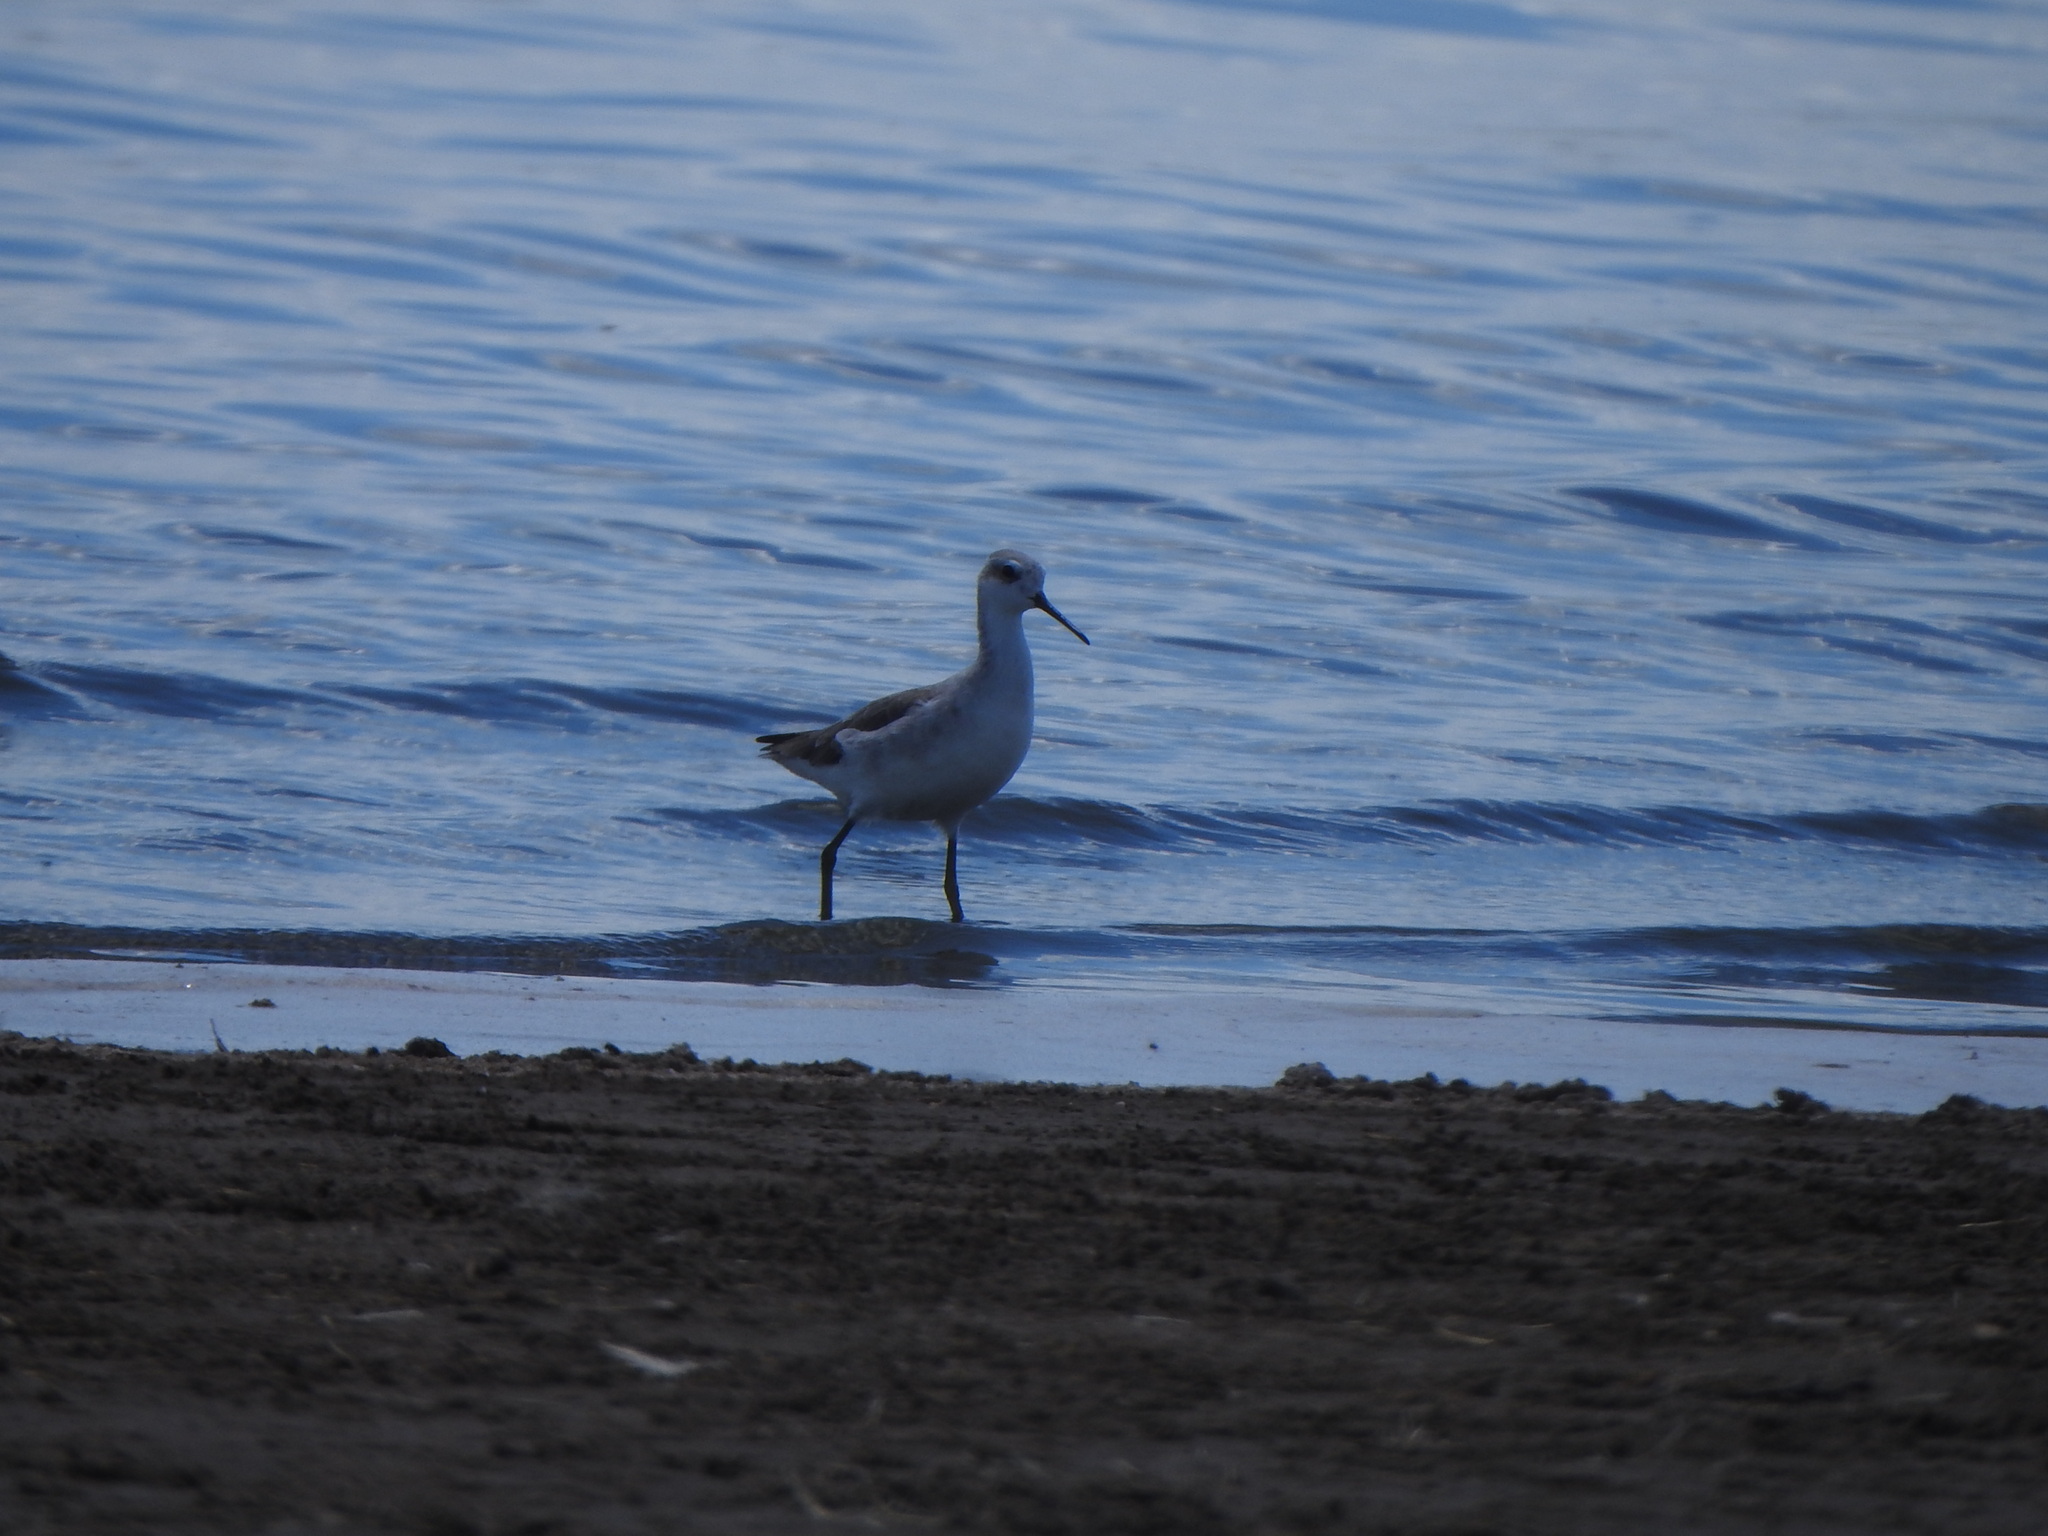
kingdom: Animalia
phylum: Chordata
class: Aves
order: Charadriiformes
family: Scolopacidae
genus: Phalaropus
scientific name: Phalaropus tricolor
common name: Wilson's phalarope
